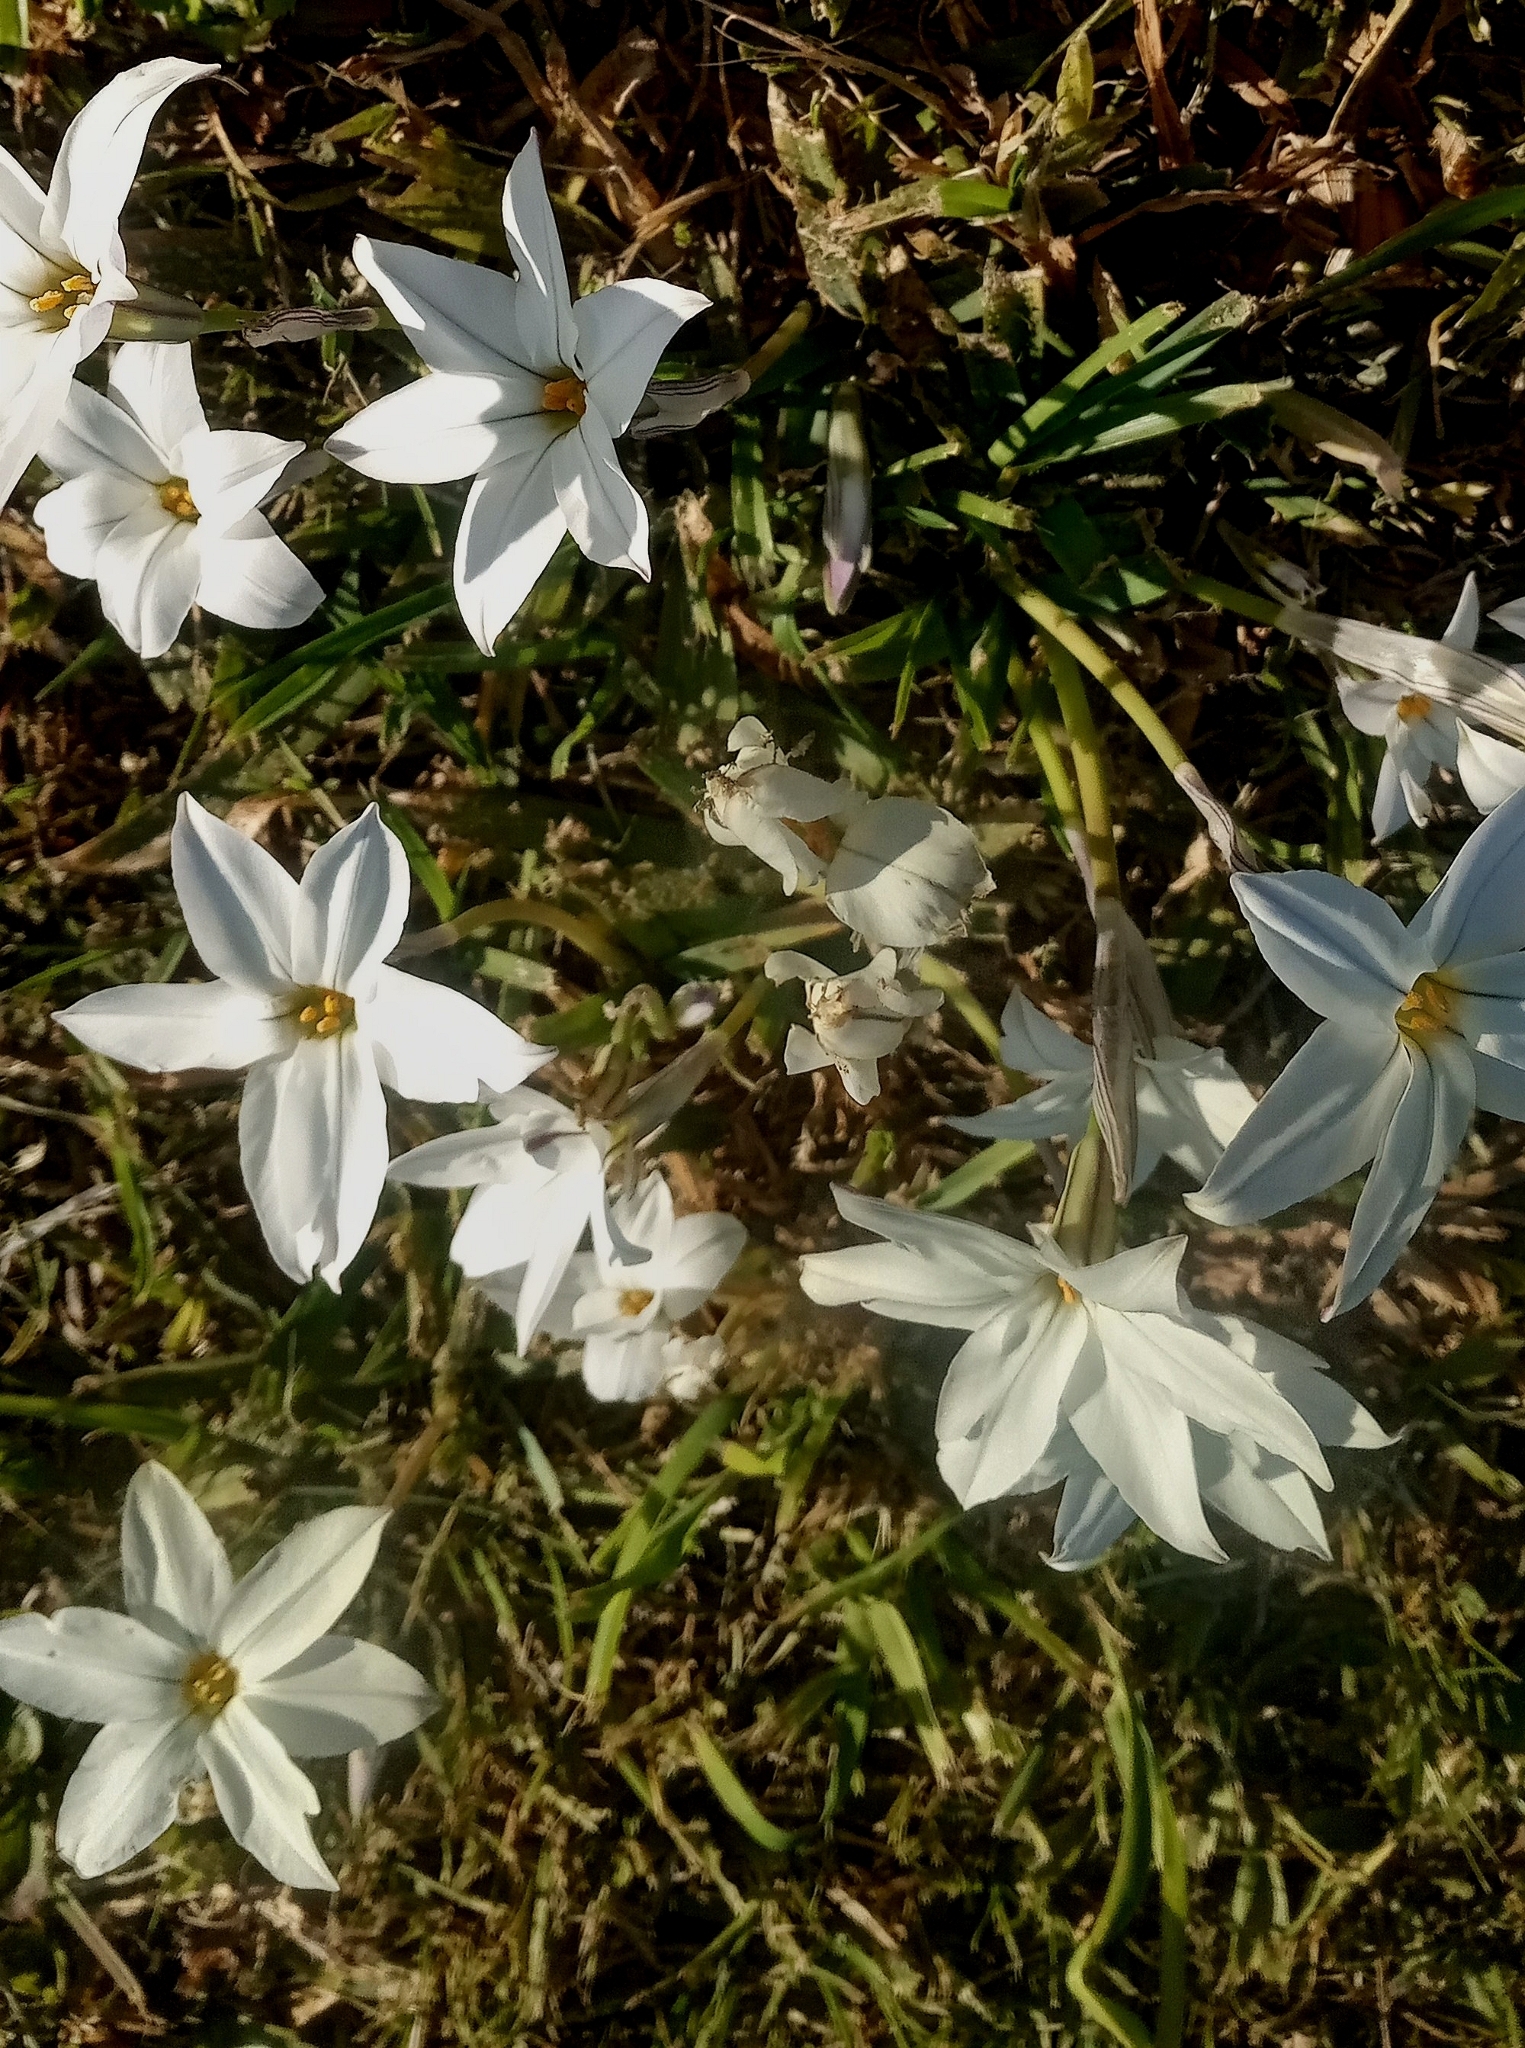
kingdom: Plantae
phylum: Tracheophyta
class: Liliopsida
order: Asparagales
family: Amaryllidaceae
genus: Ipheion
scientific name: Ipheion uniflorum
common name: Spring starflower
